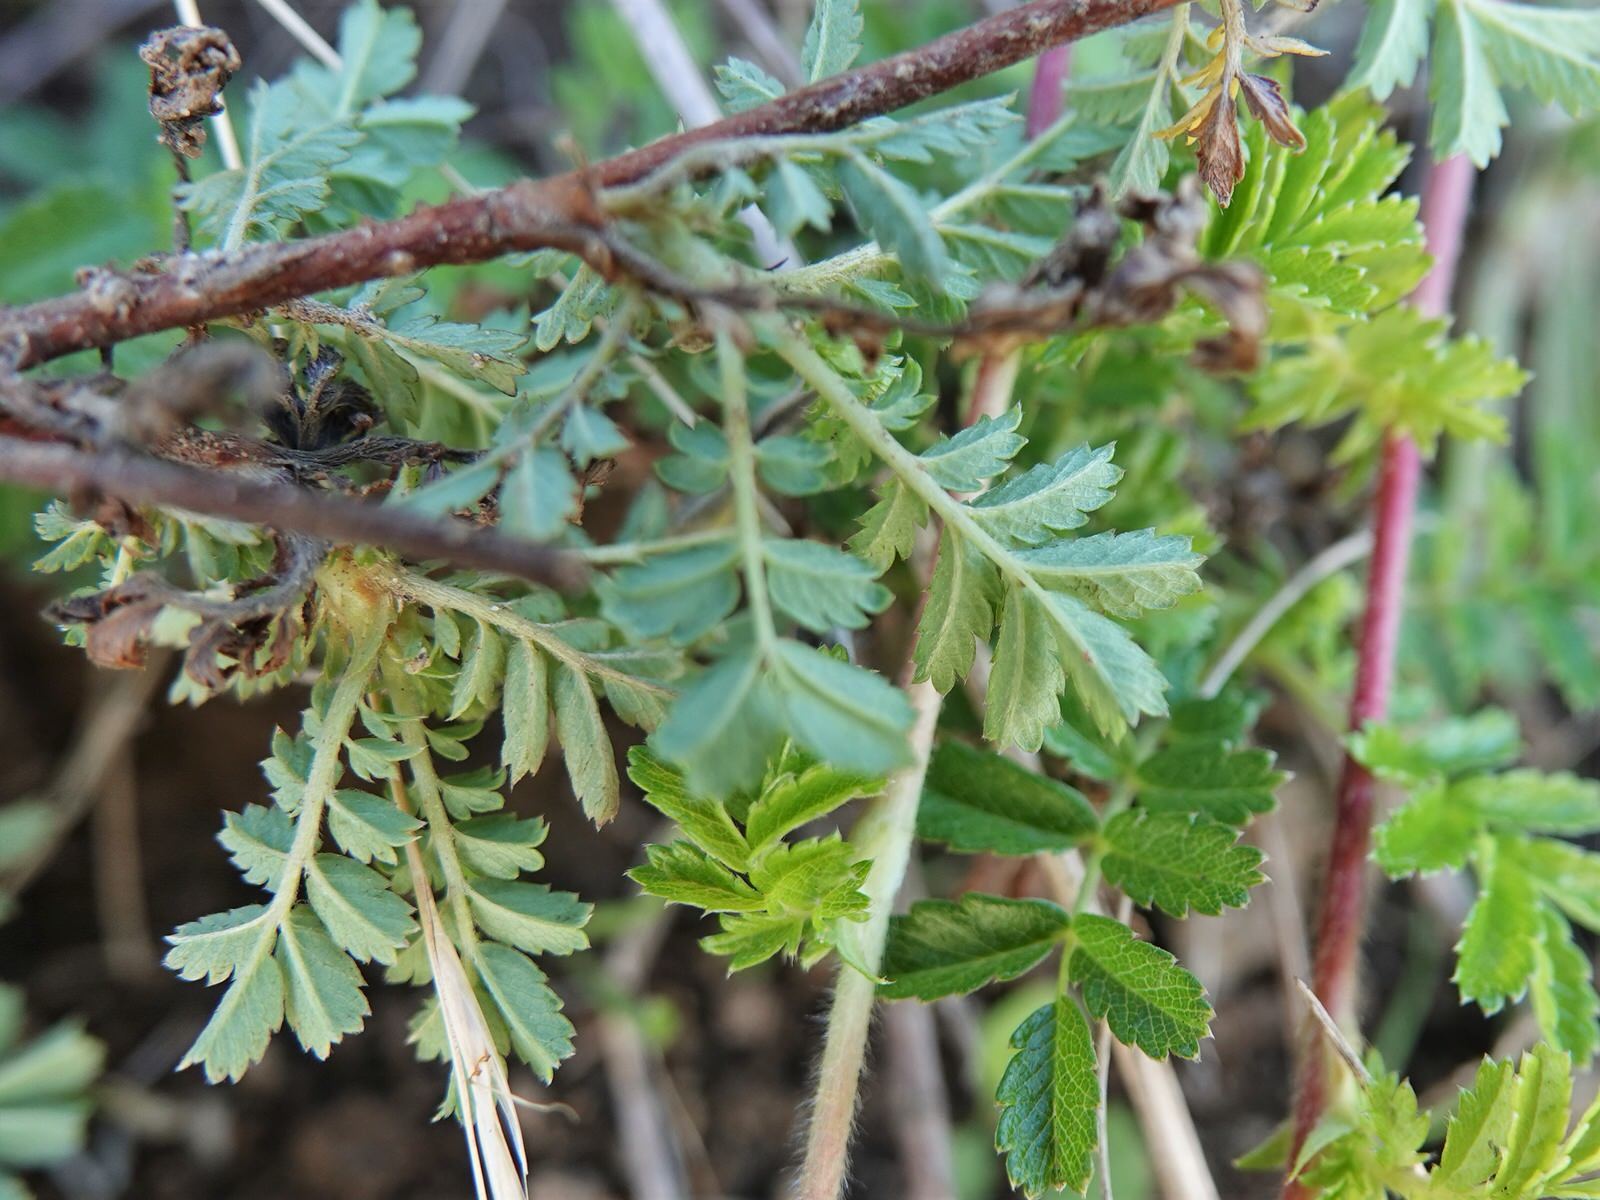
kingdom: Plantae
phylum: Tracheophyta
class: Magnoliopsida
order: Rosales
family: Rosaceae
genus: Acaena
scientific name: Acaena novae-zelandiae
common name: Pirri-pirri-bur
